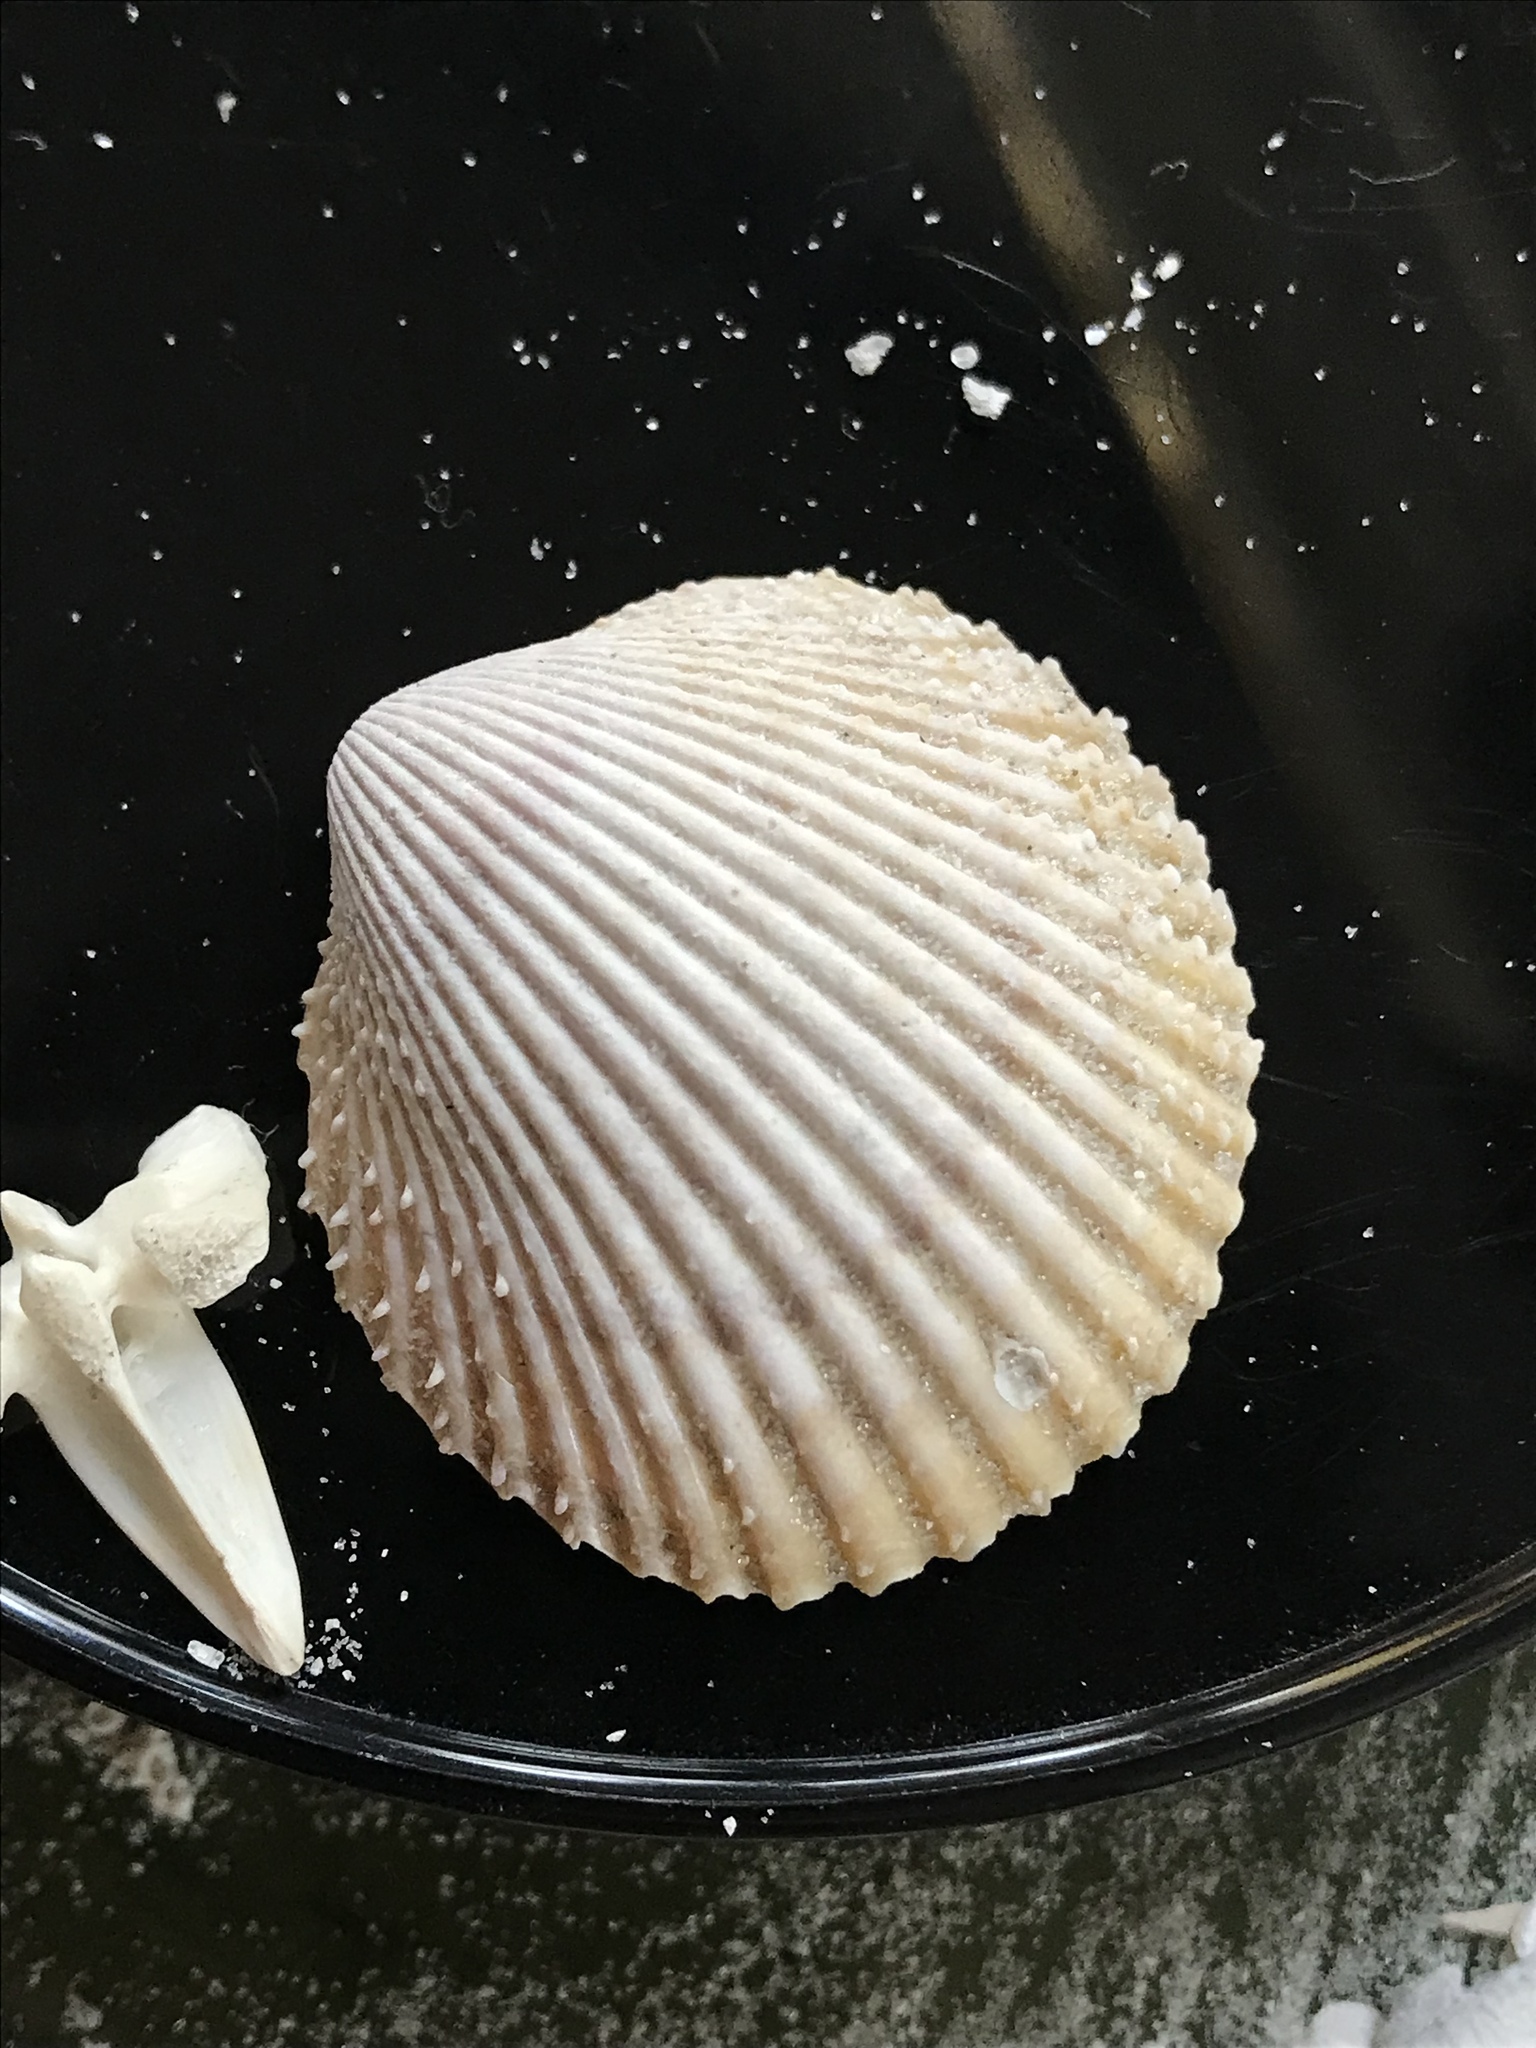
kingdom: Animalia
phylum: Mollusca
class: Bivalvia
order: Cardiida
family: Cardiidae
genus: Dallocardia
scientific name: Dallocardia muricata
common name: Yellow pricklycockle
